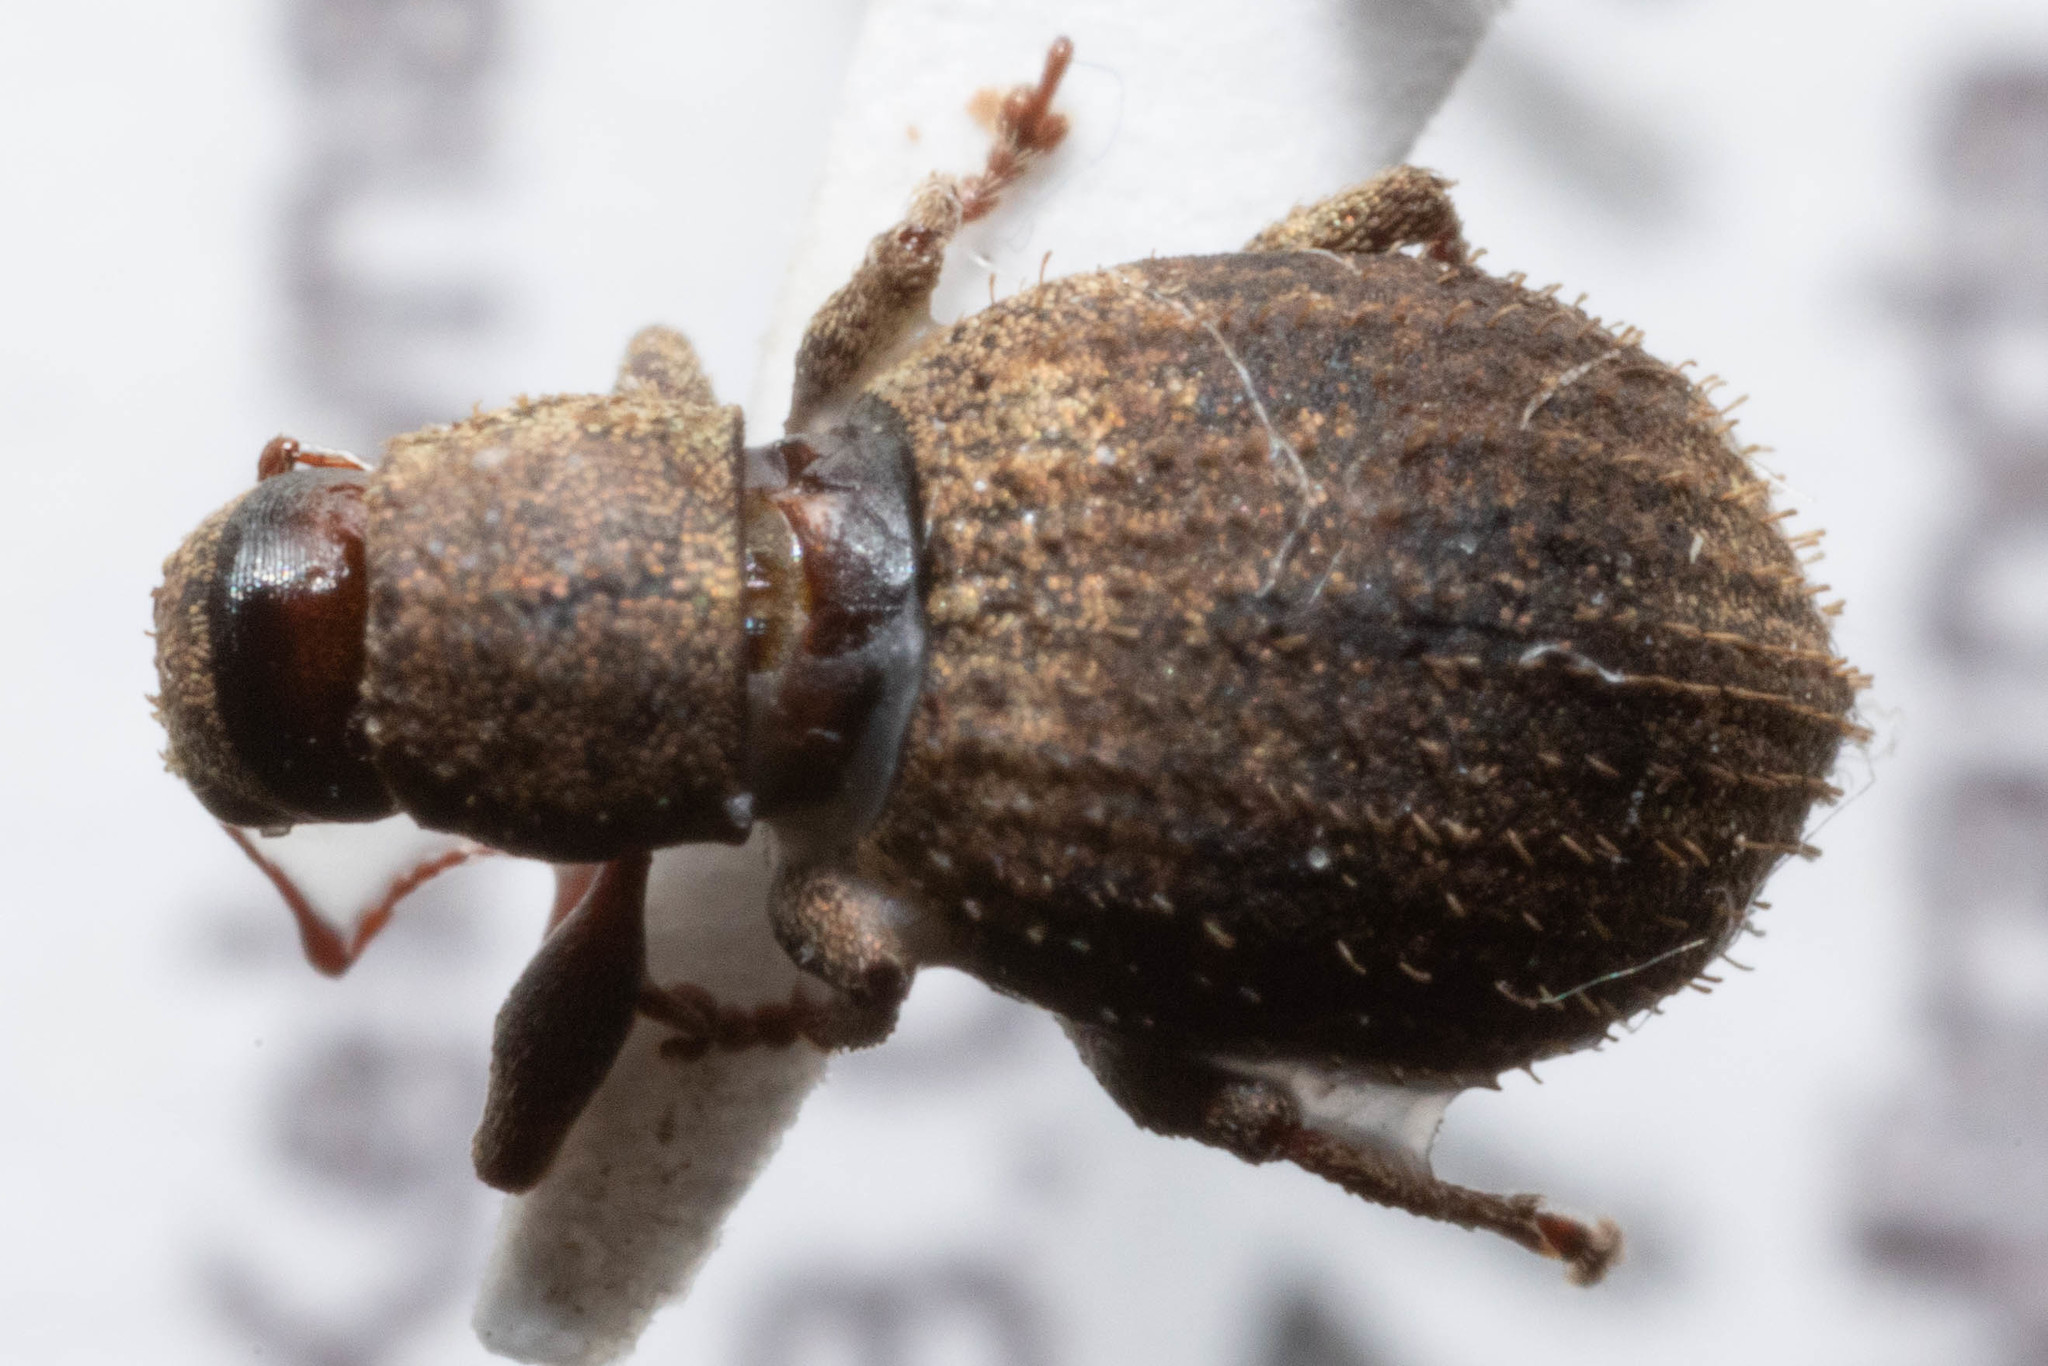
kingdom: Animalia
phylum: Arthropoda
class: Insecta
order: Coleoptera
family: Curculionidae
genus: Sciaphilus
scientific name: Sciaphilus asperatus
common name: Weevil
